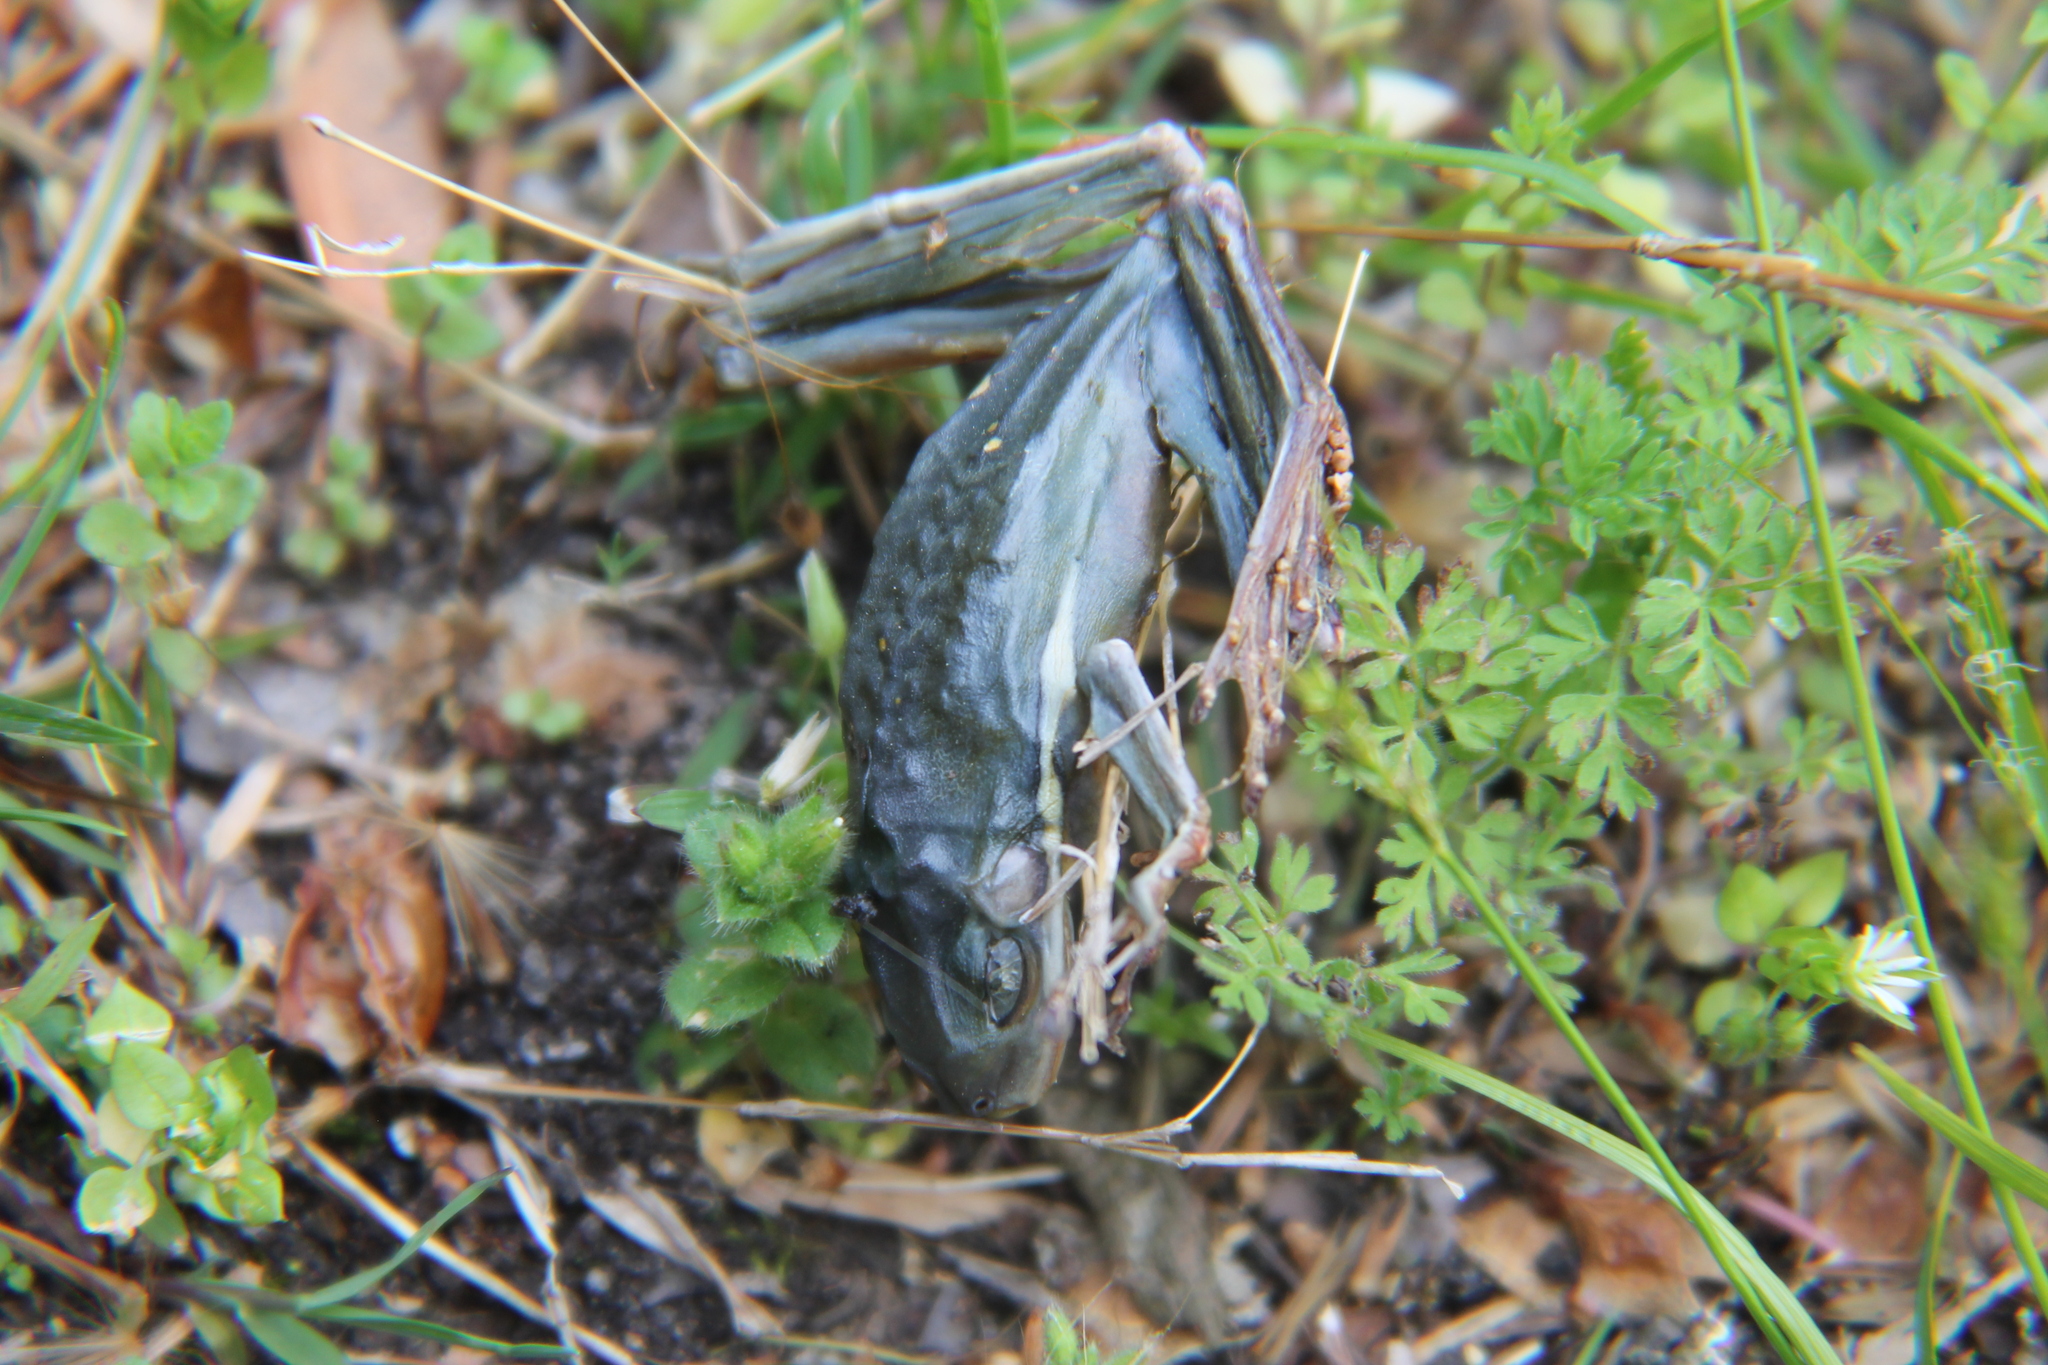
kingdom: Animalia
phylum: Chordata
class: Amphibia
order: Anura
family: Hylidae
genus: Dryophytes
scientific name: Dryophytes cinereus
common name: Green treefrog
